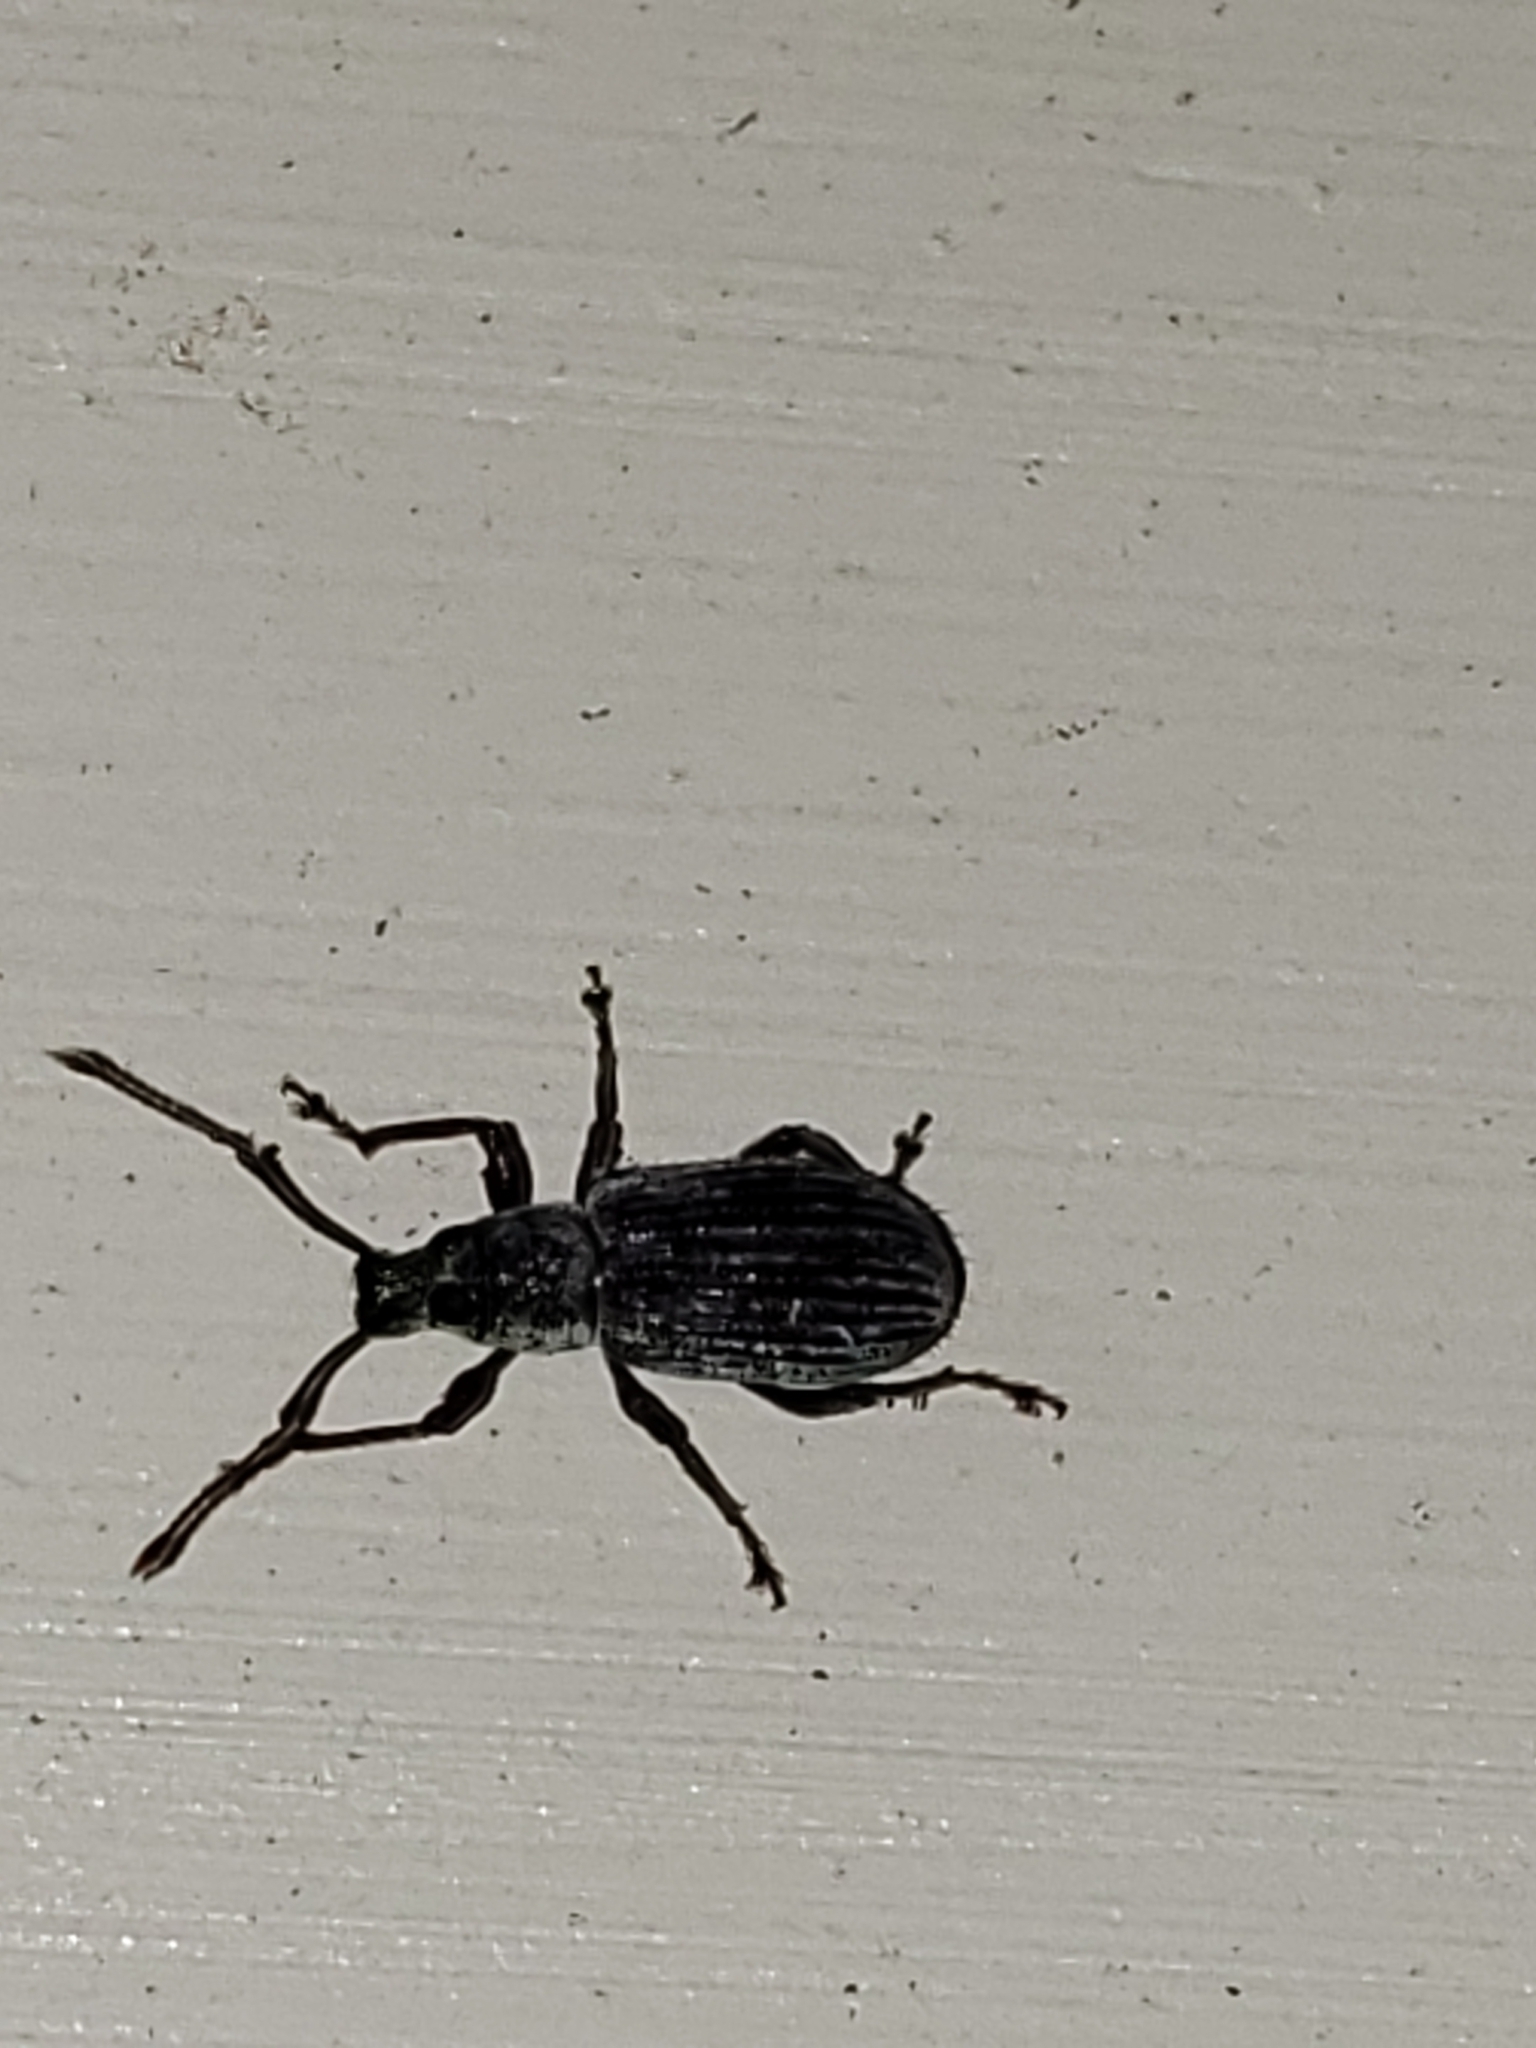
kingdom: Animalia
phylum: Arthropoda
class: Insecta
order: Coleoptera
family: Curculionidae
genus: Cyrtepistomus
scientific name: Cyrtepistomus castaneus
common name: Weevil
